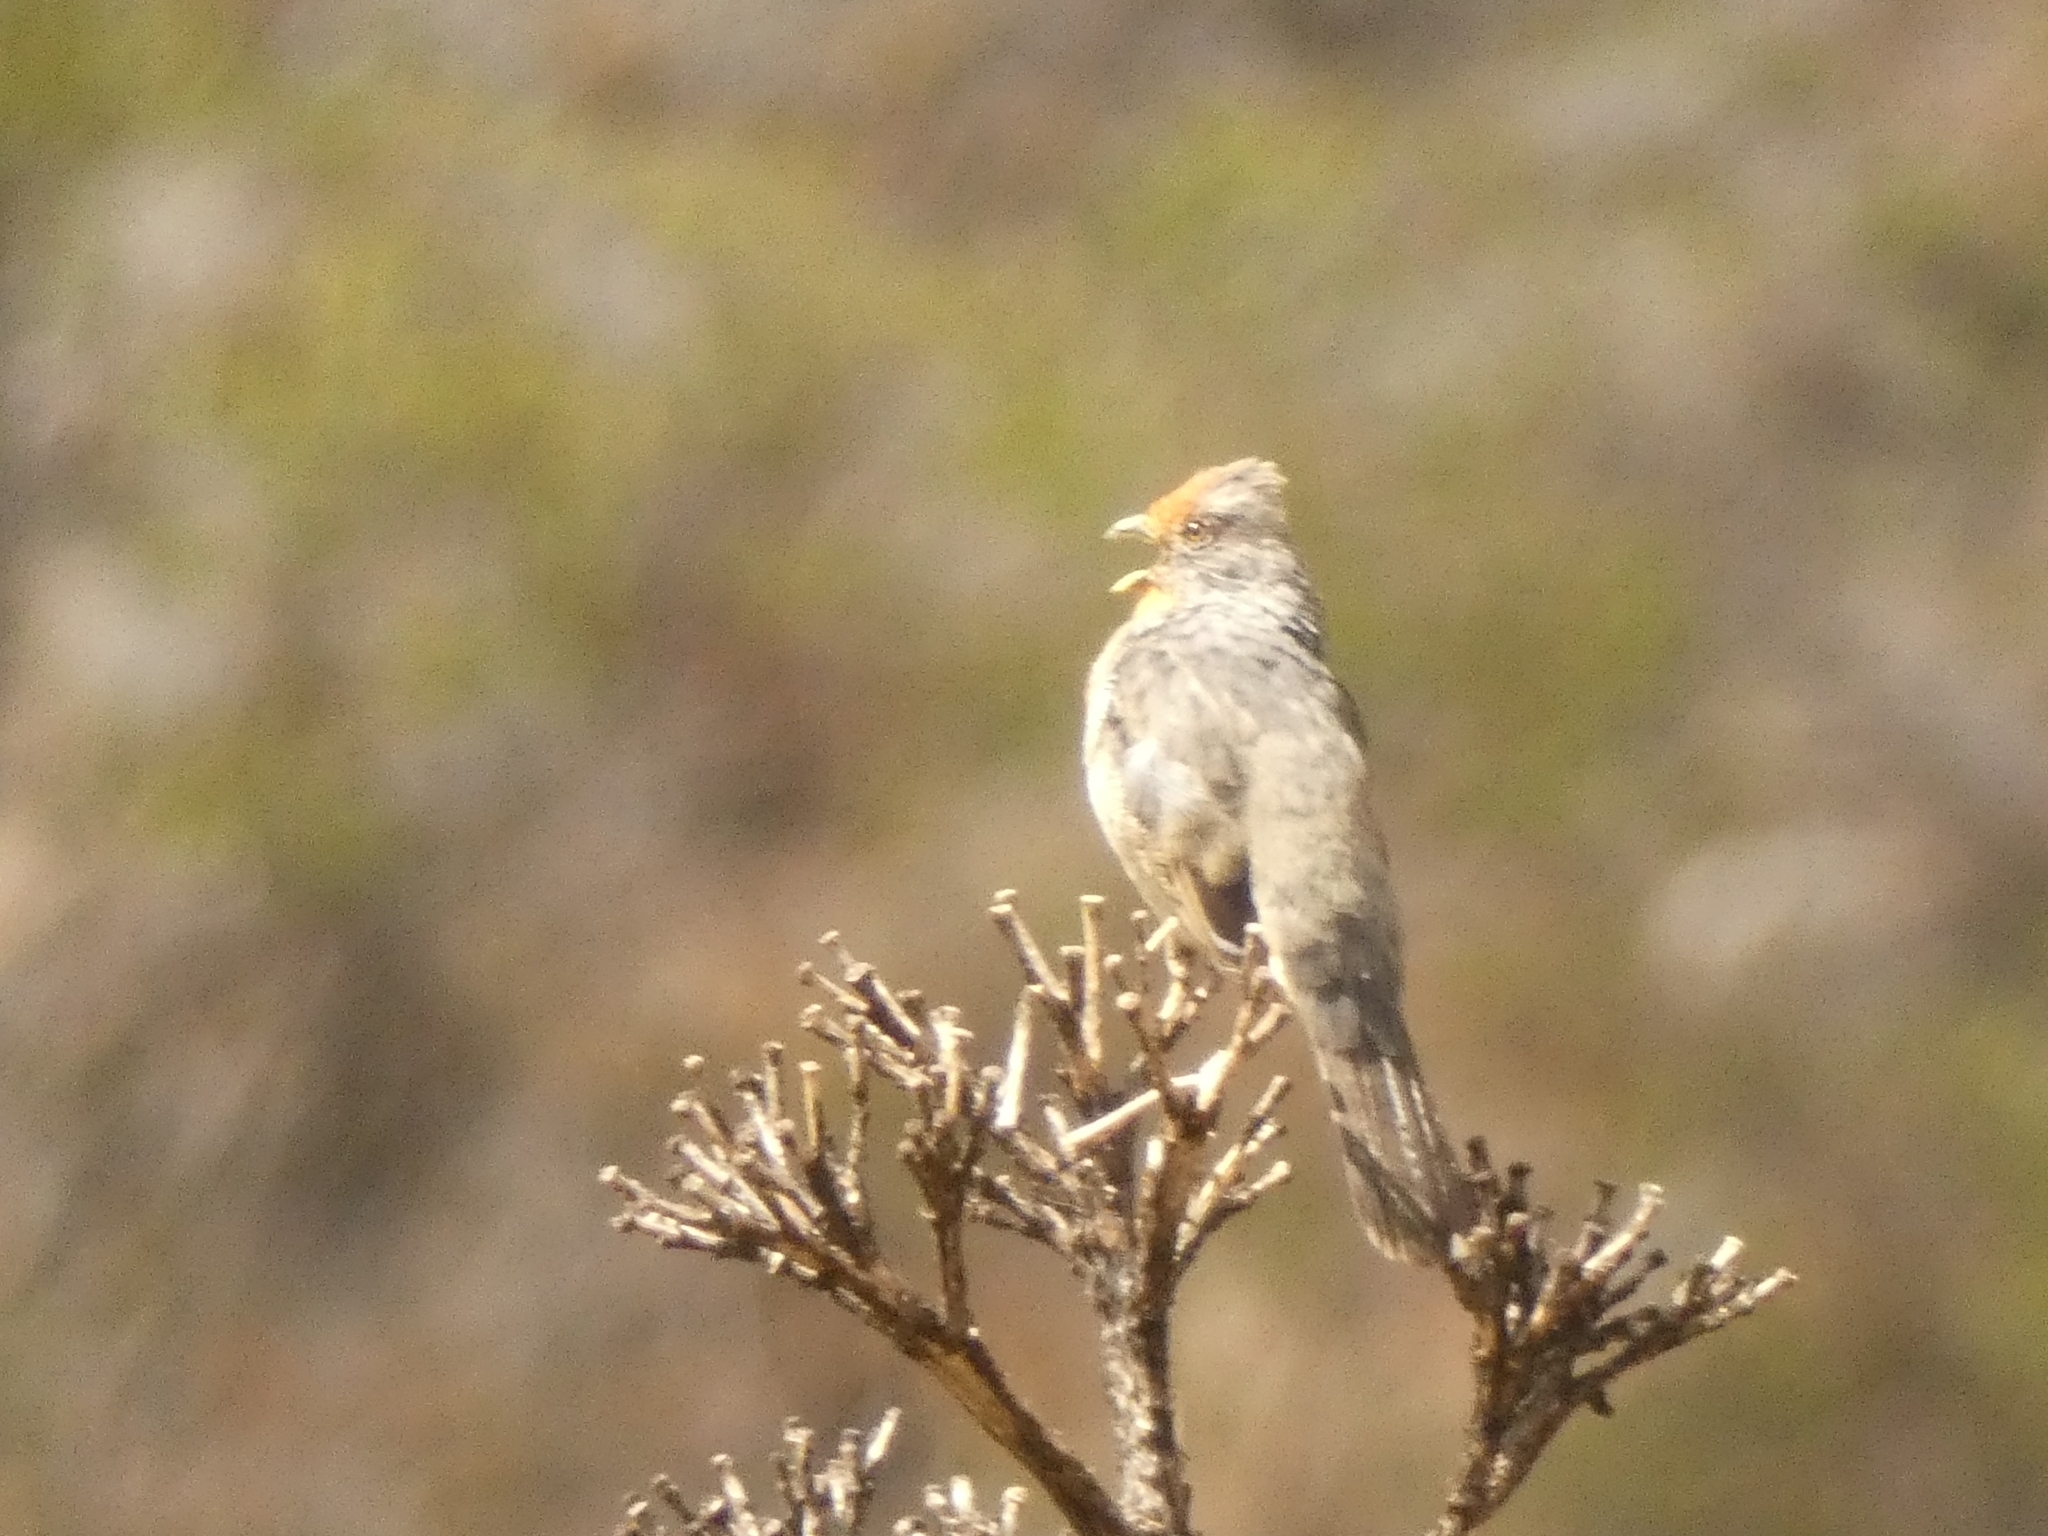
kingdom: Animalia
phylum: Chordata
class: Aves
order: Passeriformes
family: Cotingidae
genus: Phytotoma
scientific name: Phytotoma rutila
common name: White-tipped plantcutter
